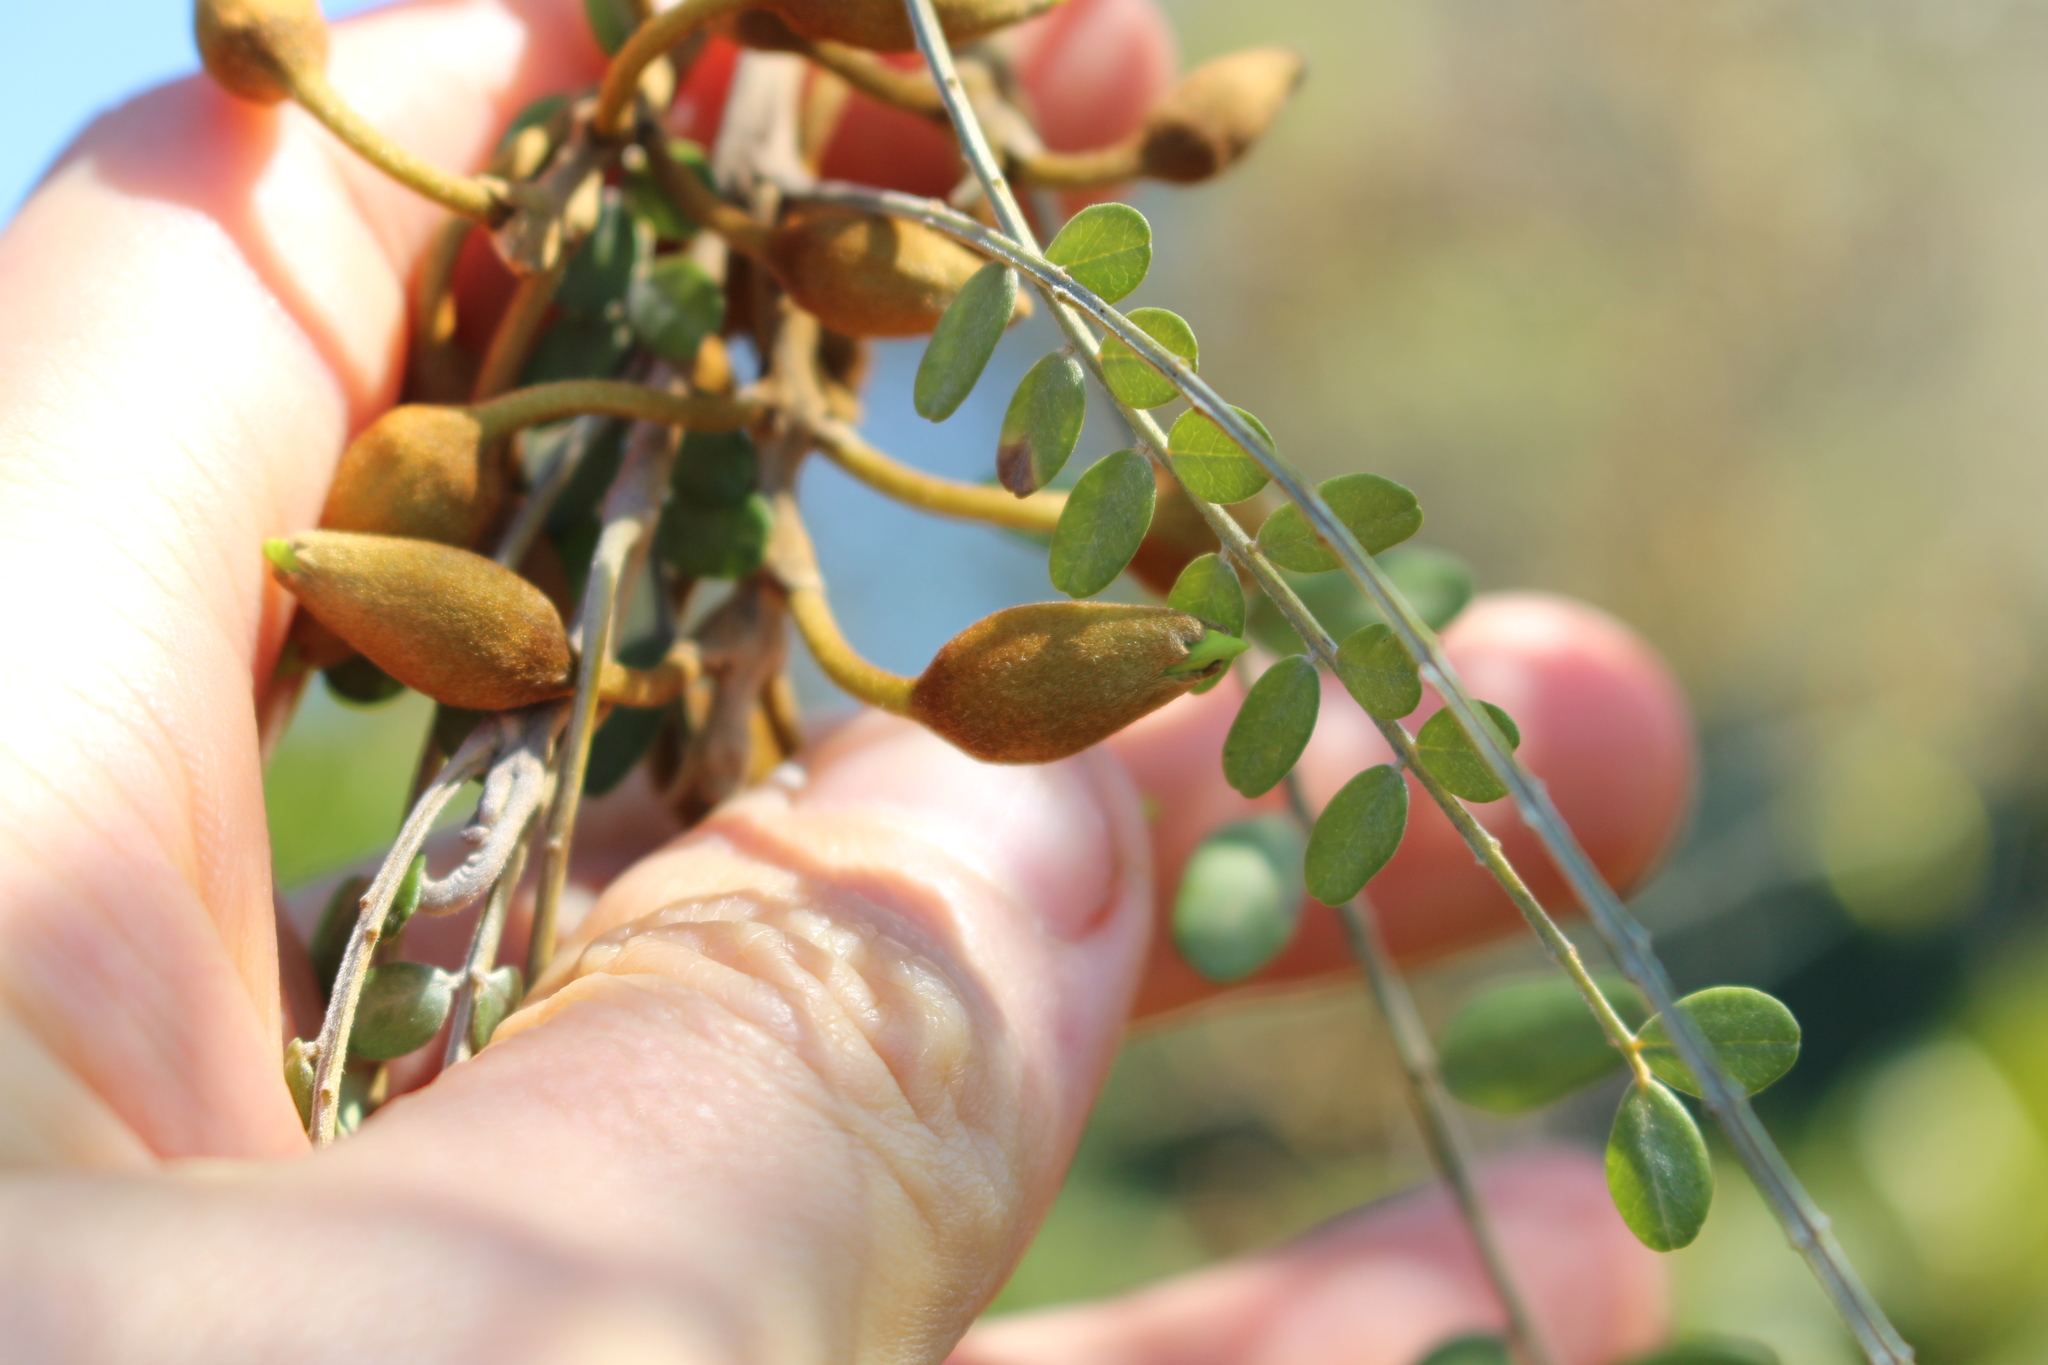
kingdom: Plantae
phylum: Tracheophyta
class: Magnoliopsida
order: Fabales
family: Fabaceae
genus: Sophora
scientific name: Sophora microphylla
